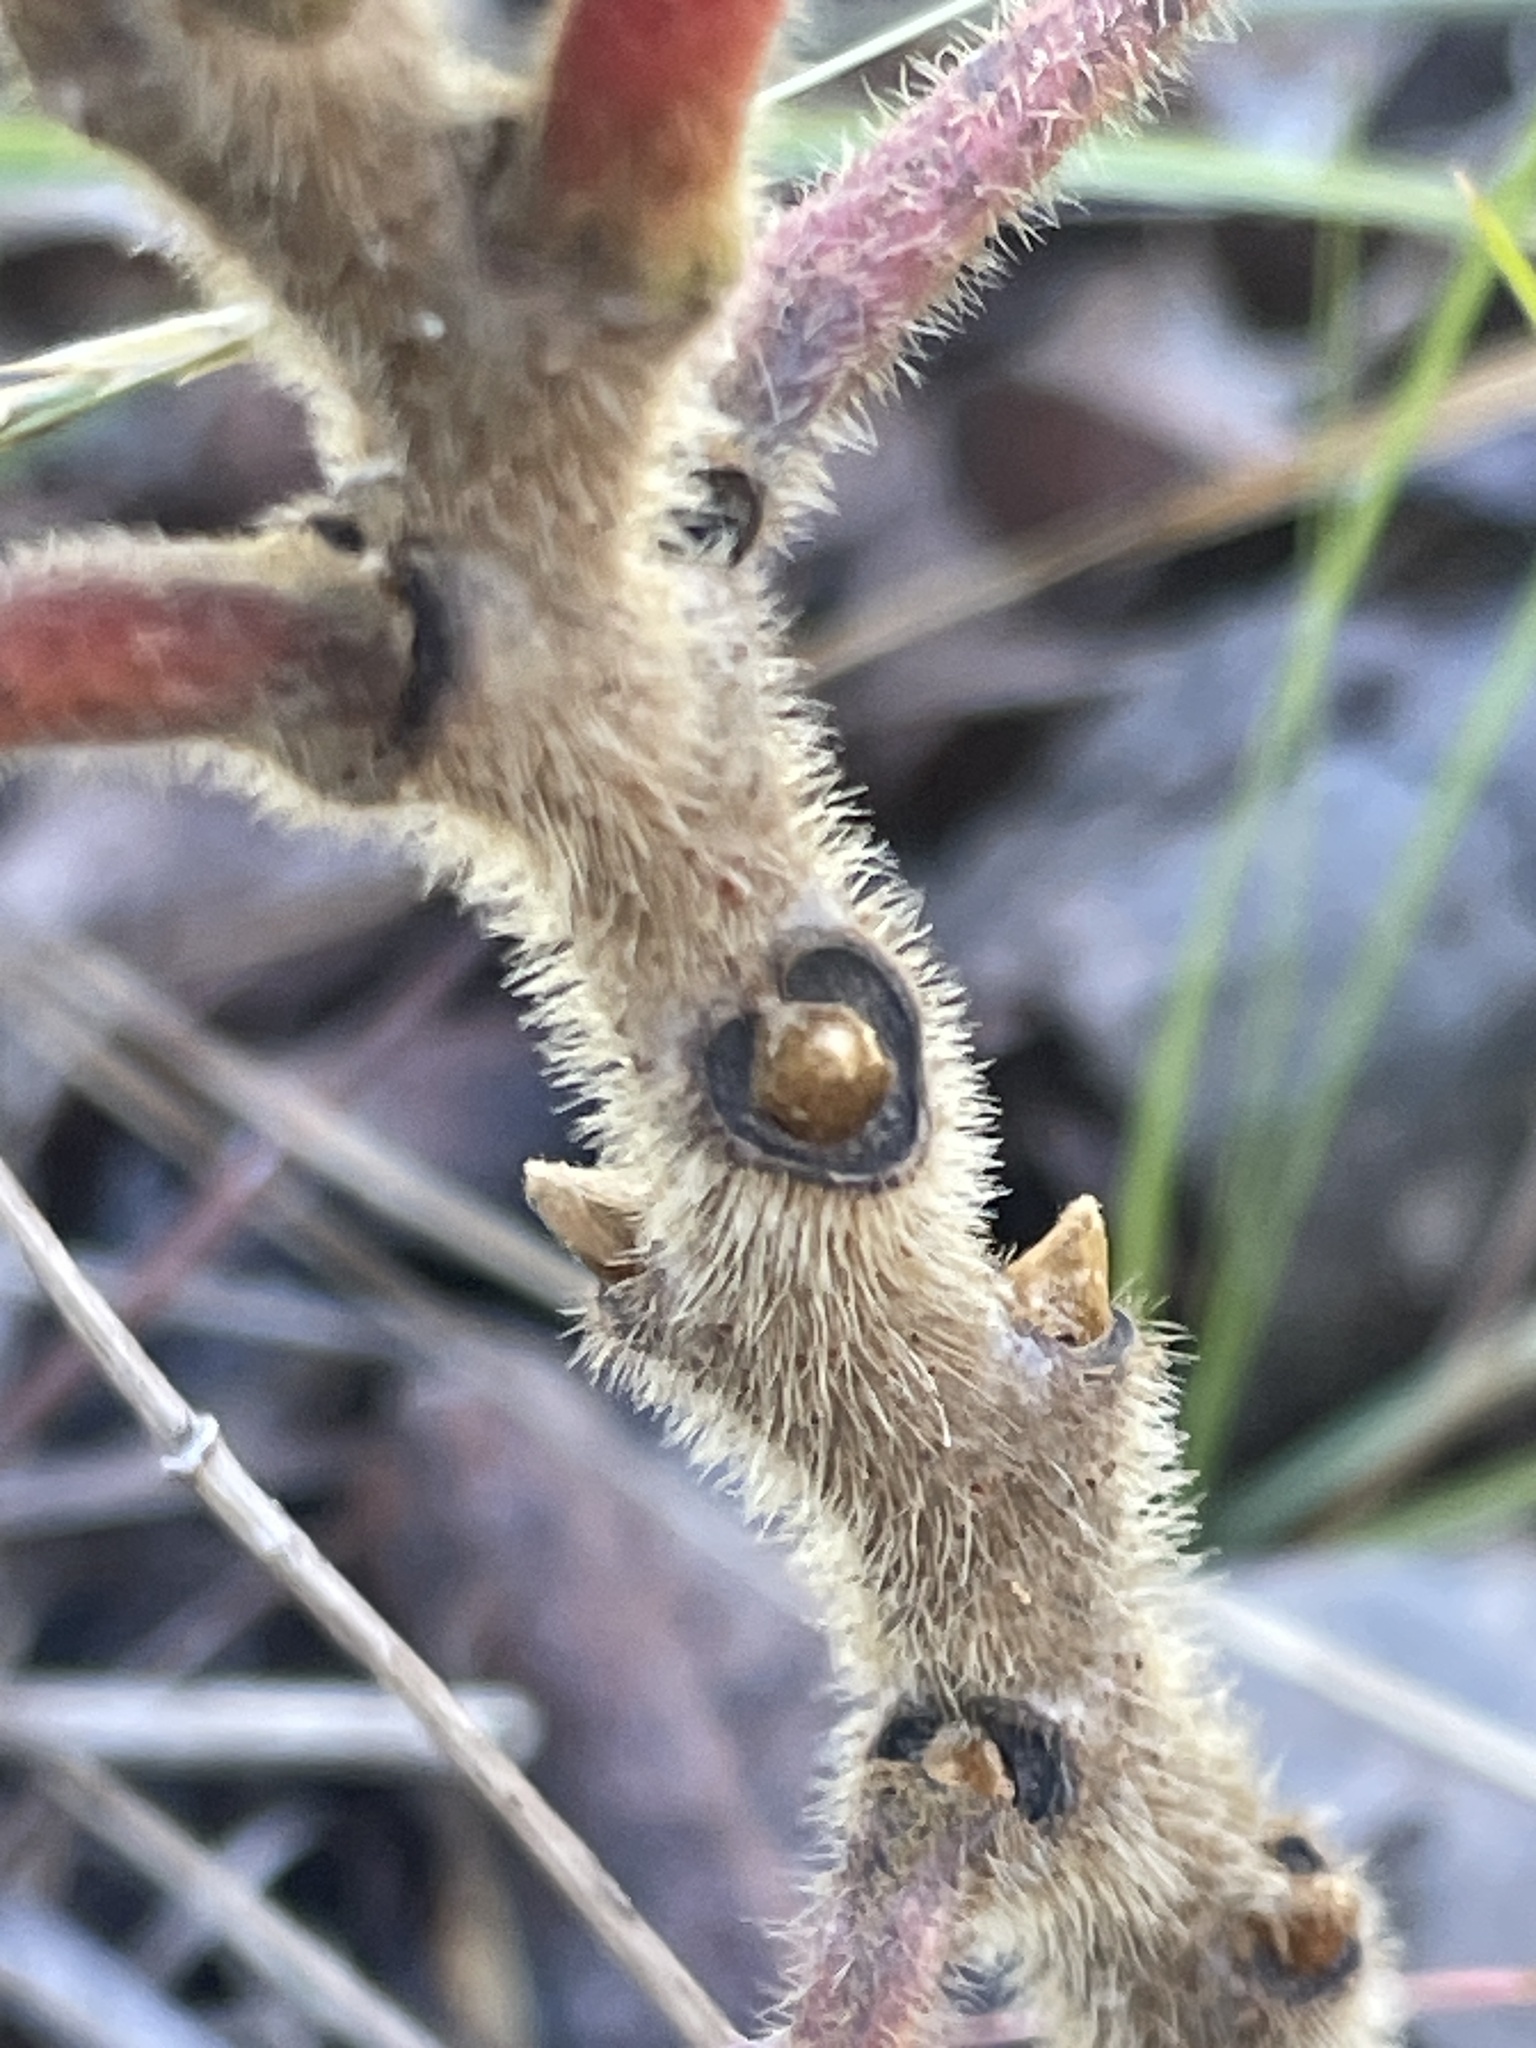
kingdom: Plantae
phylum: Tracheophyta
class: Magnoliopsida
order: Sapindales
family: Anacardiaceae
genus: Rhus
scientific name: Rhus michauxii
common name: Michaux's sumac
